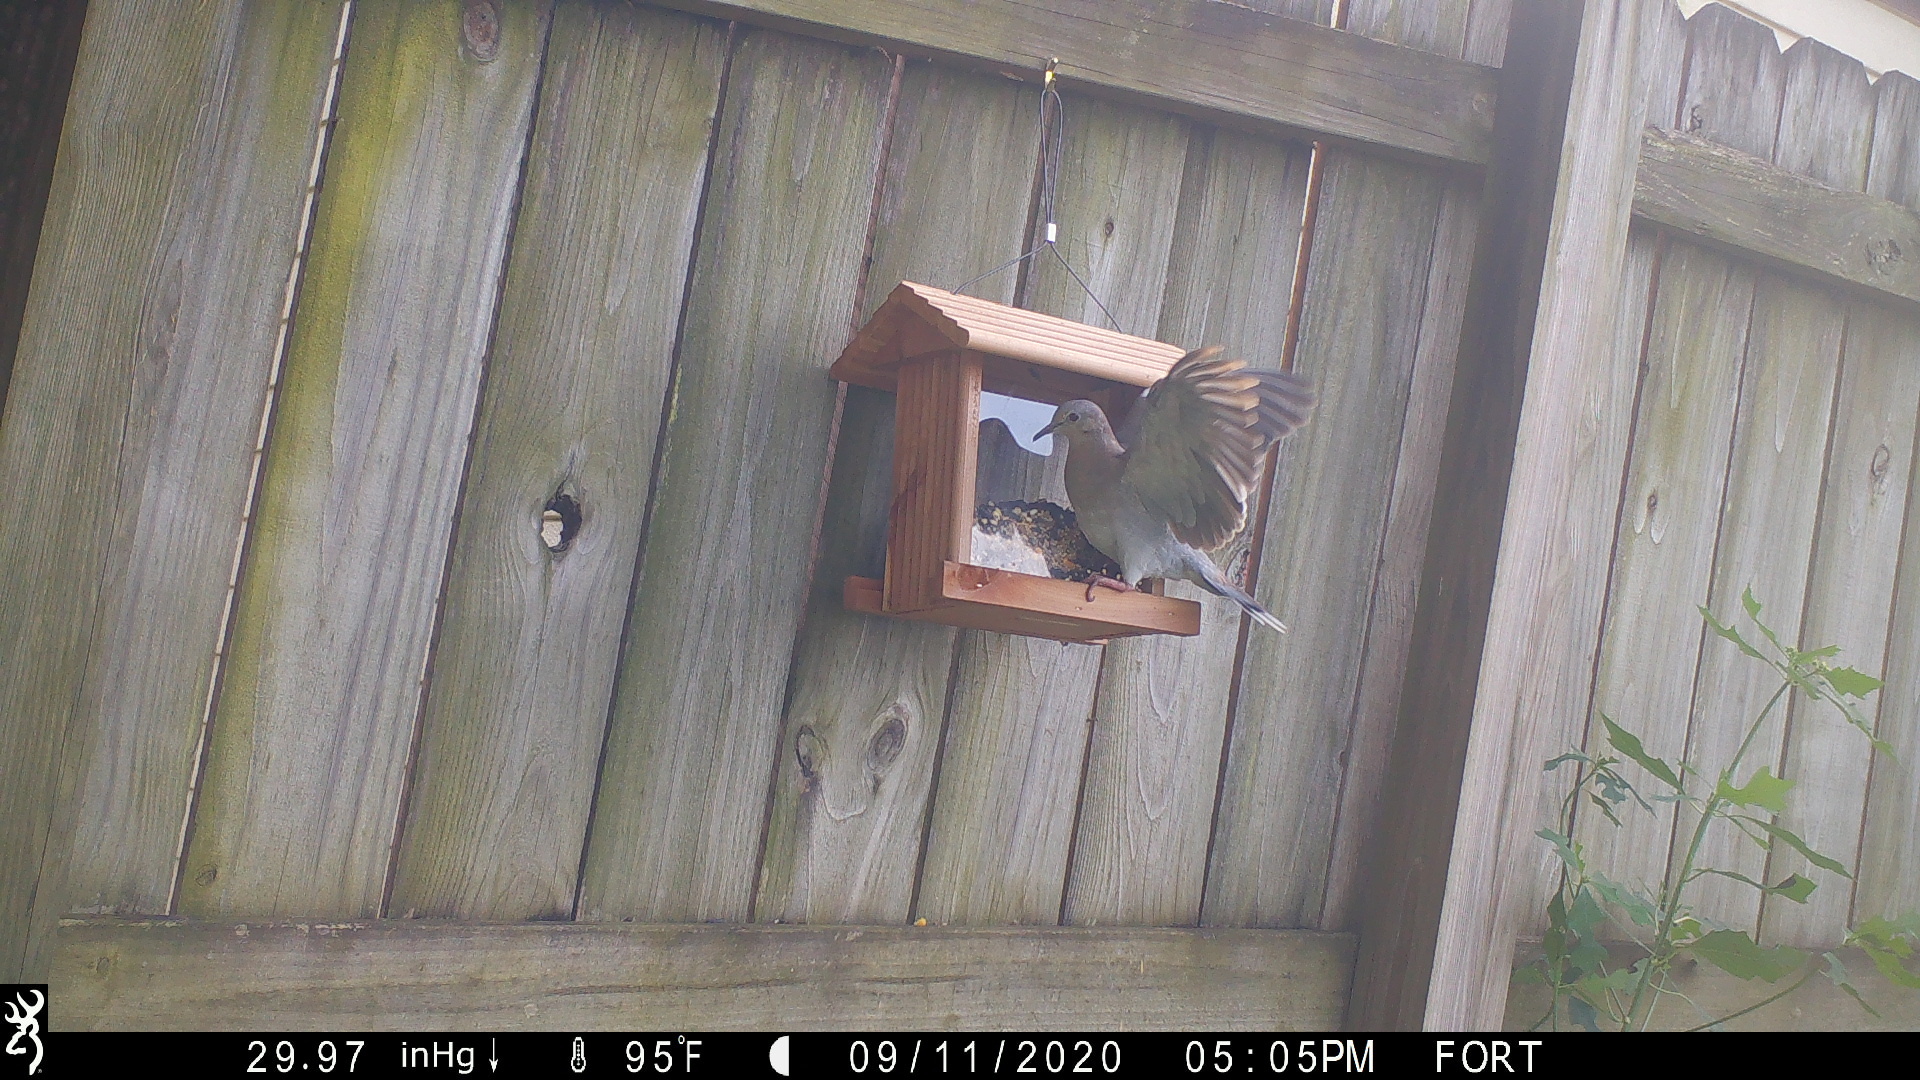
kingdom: Animalia
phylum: Chordata
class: Aves
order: Columbiformes
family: Columbidae
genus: Zenaida
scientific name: Zenaida asiatica
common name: White-winged dove
